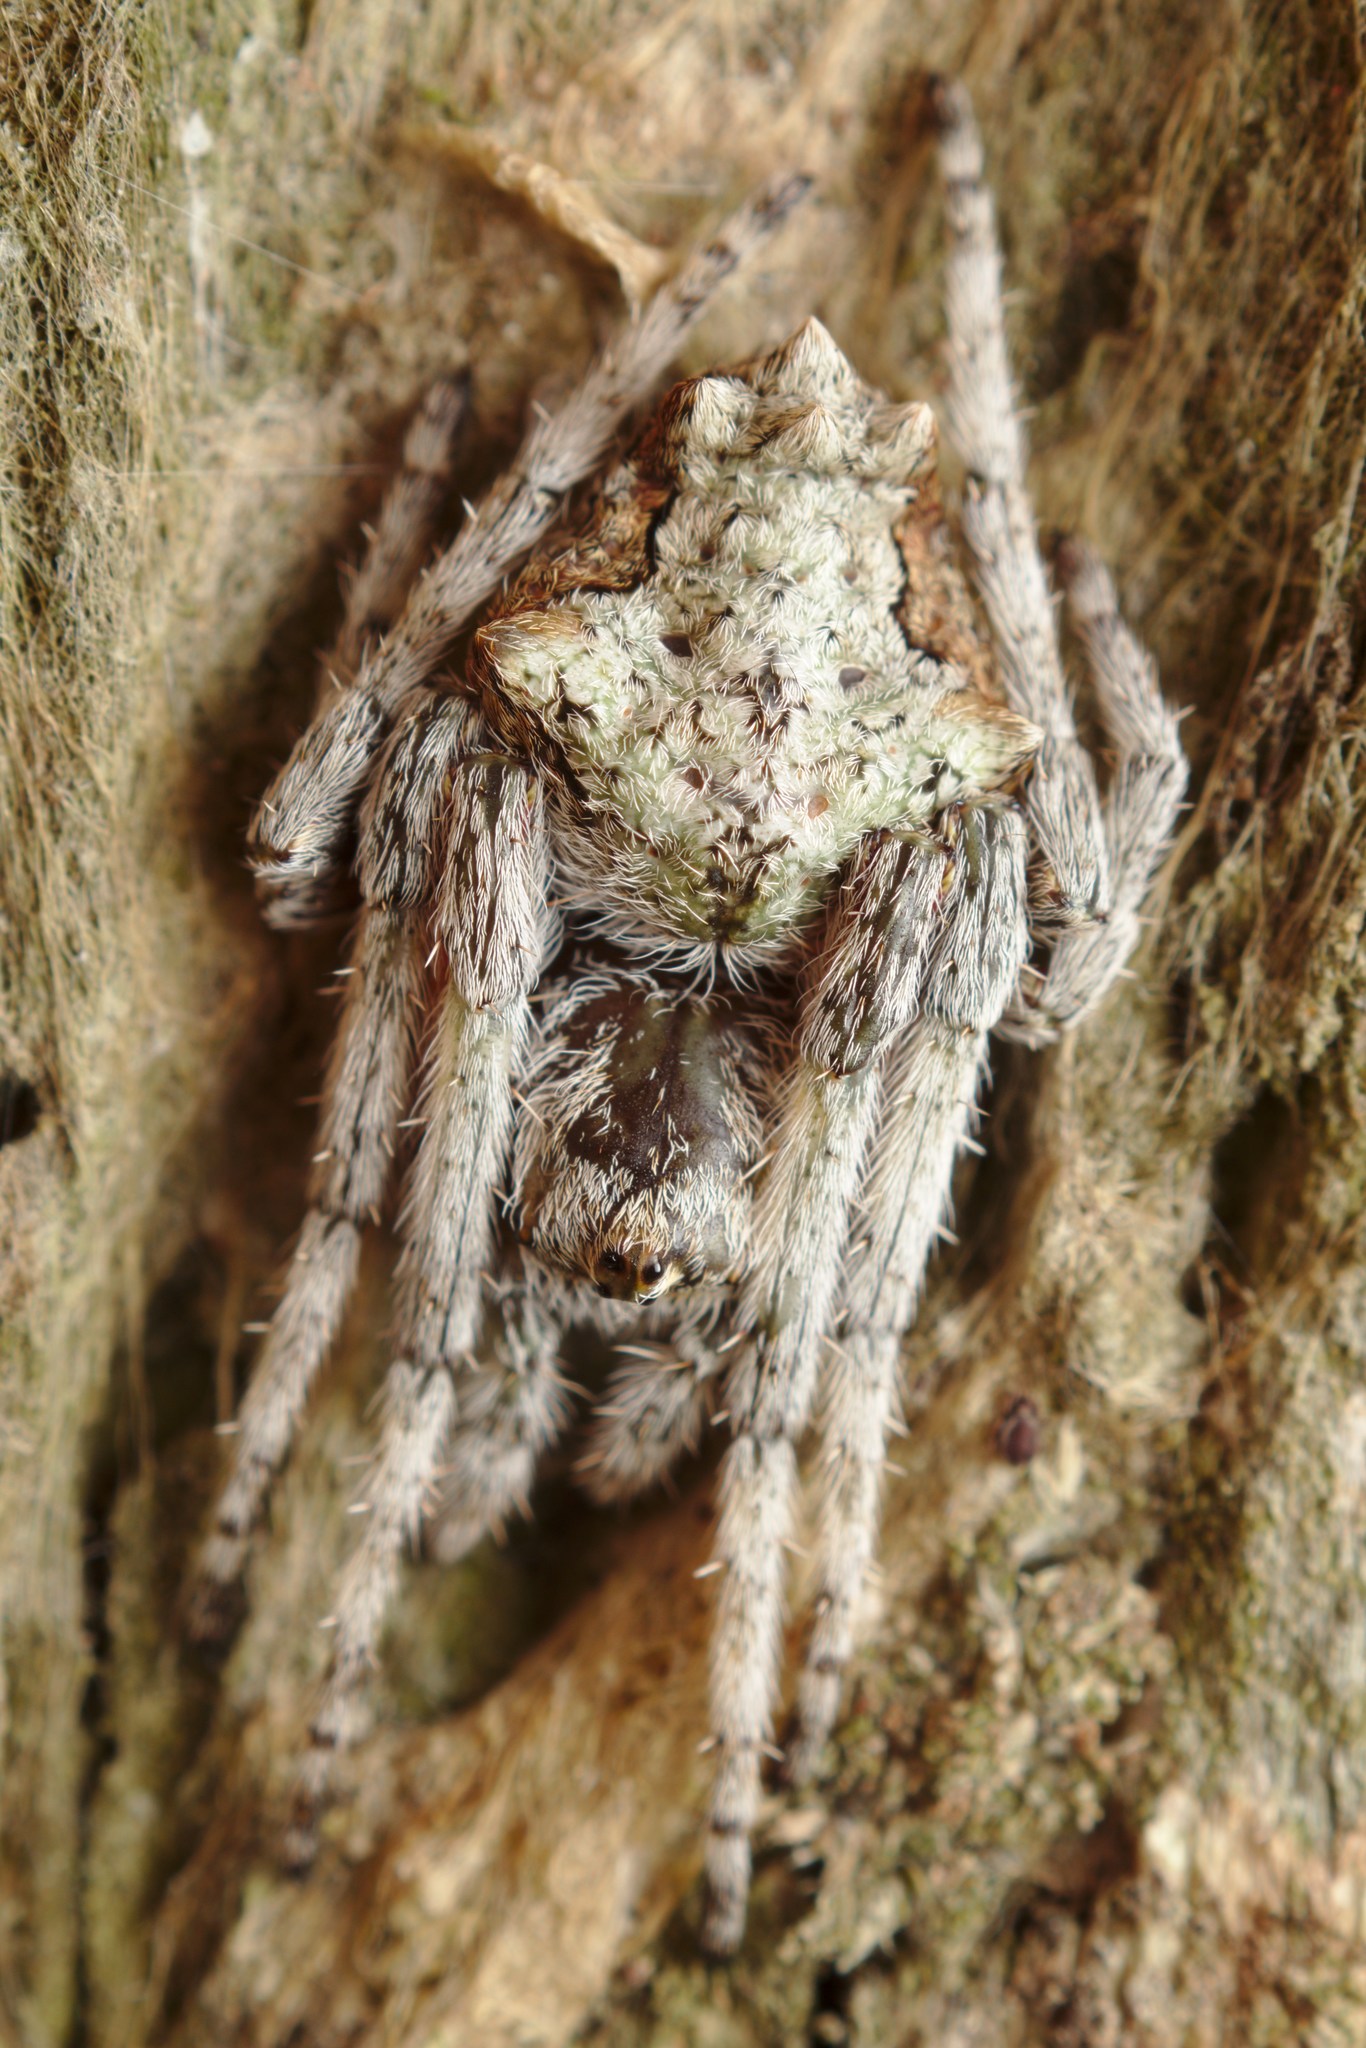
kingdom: Animalia
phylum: Arthropoda
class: Arachnida
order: Araneae
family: Araneidae
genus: Eriophora
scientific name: Eriophora pustulosa
